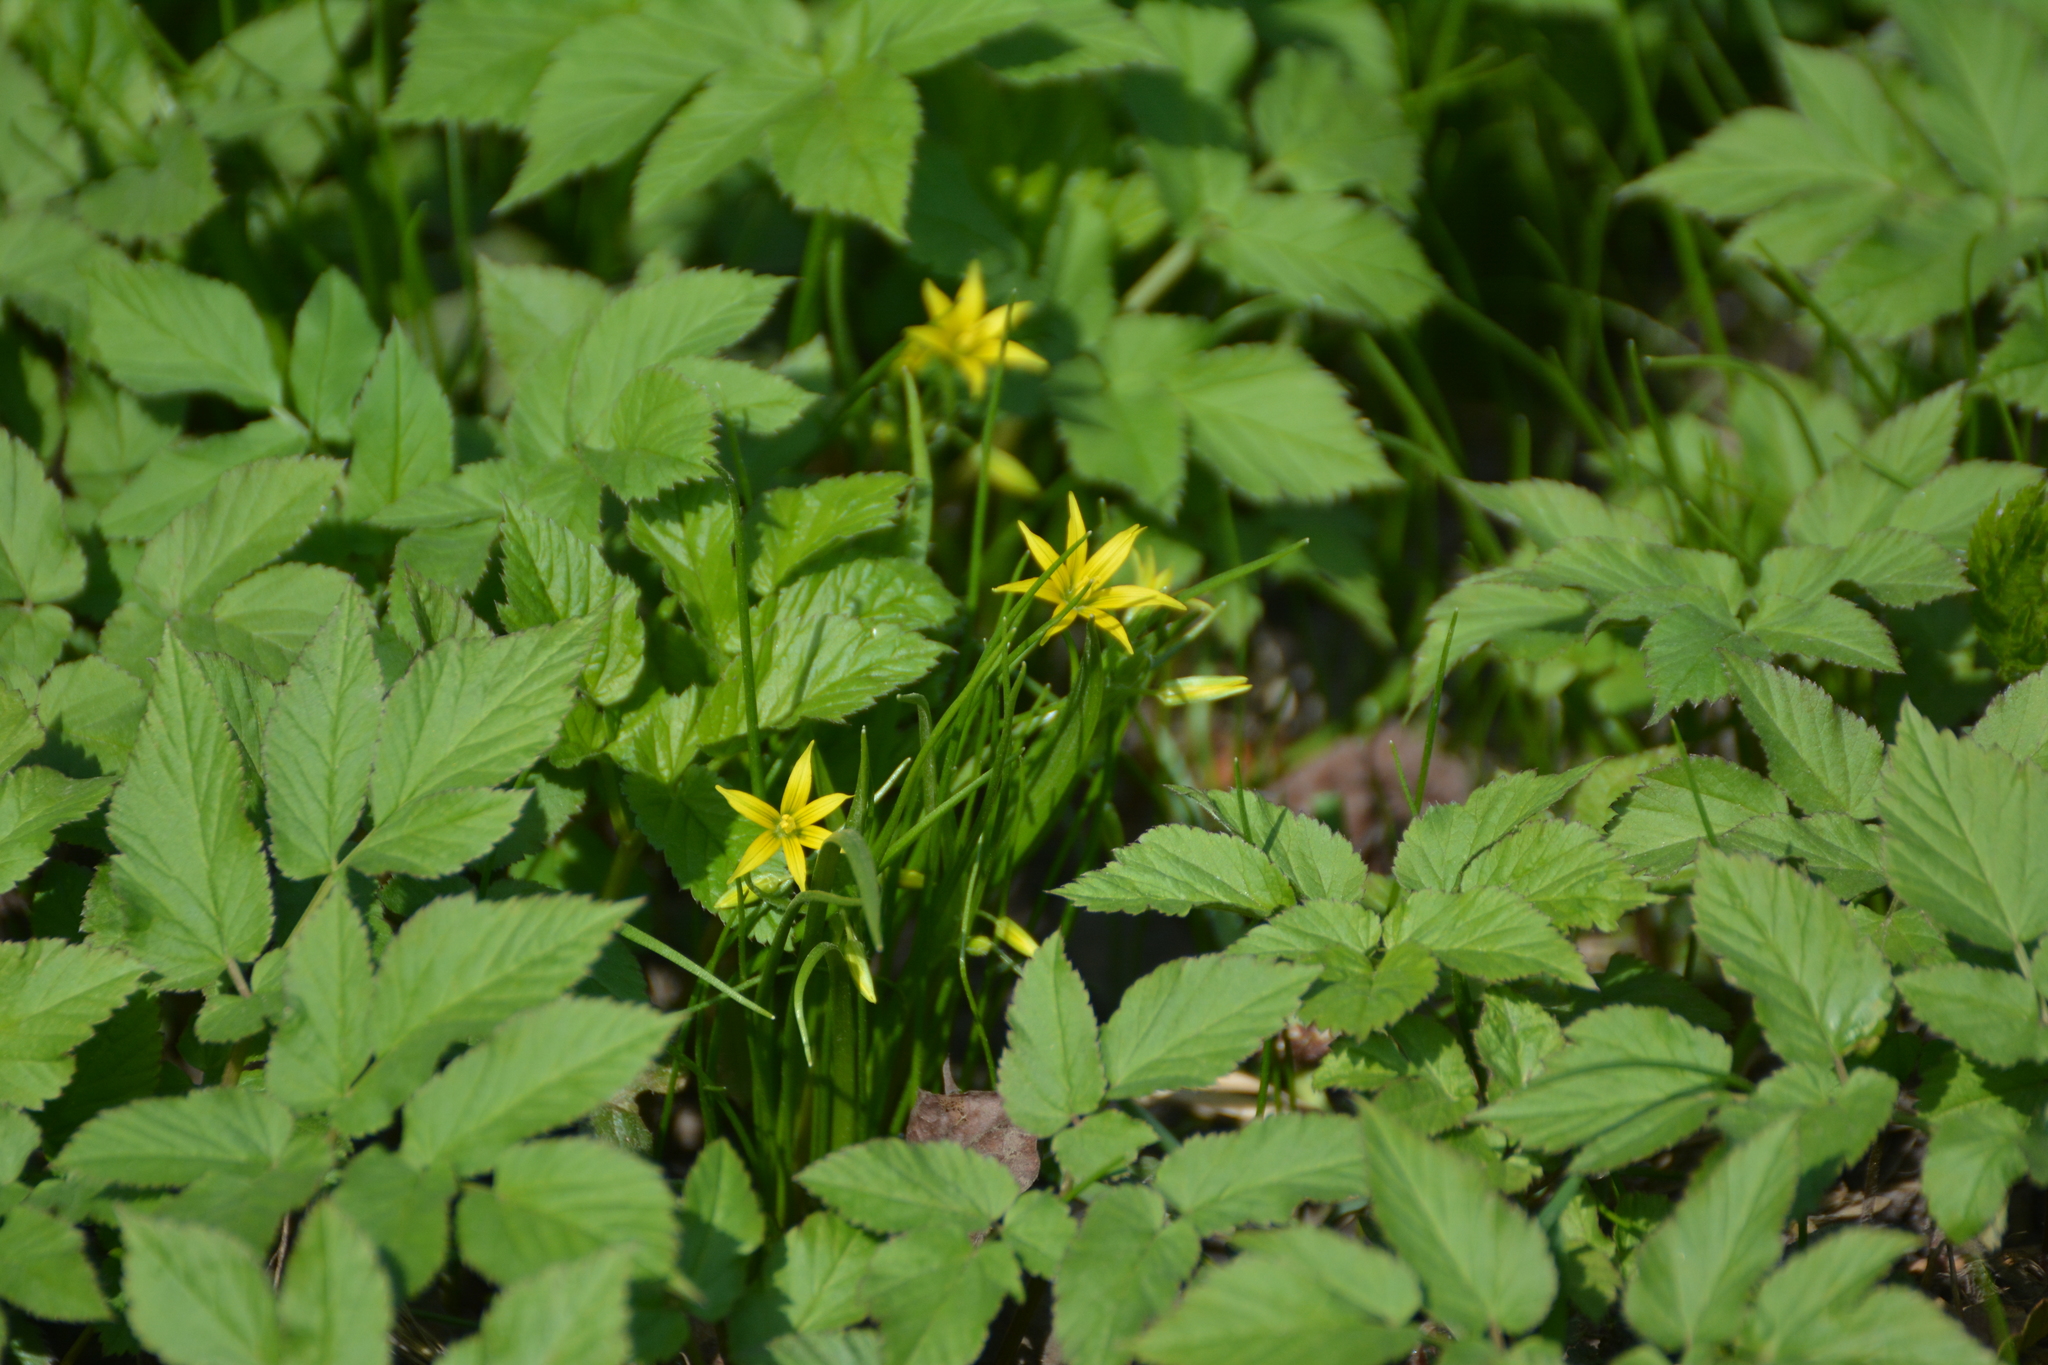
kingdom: Plantae
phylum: Tracheophyta
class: Liliopsida
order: Liliales
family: Liliaceae
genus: Gagea
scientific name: Gagea minima
